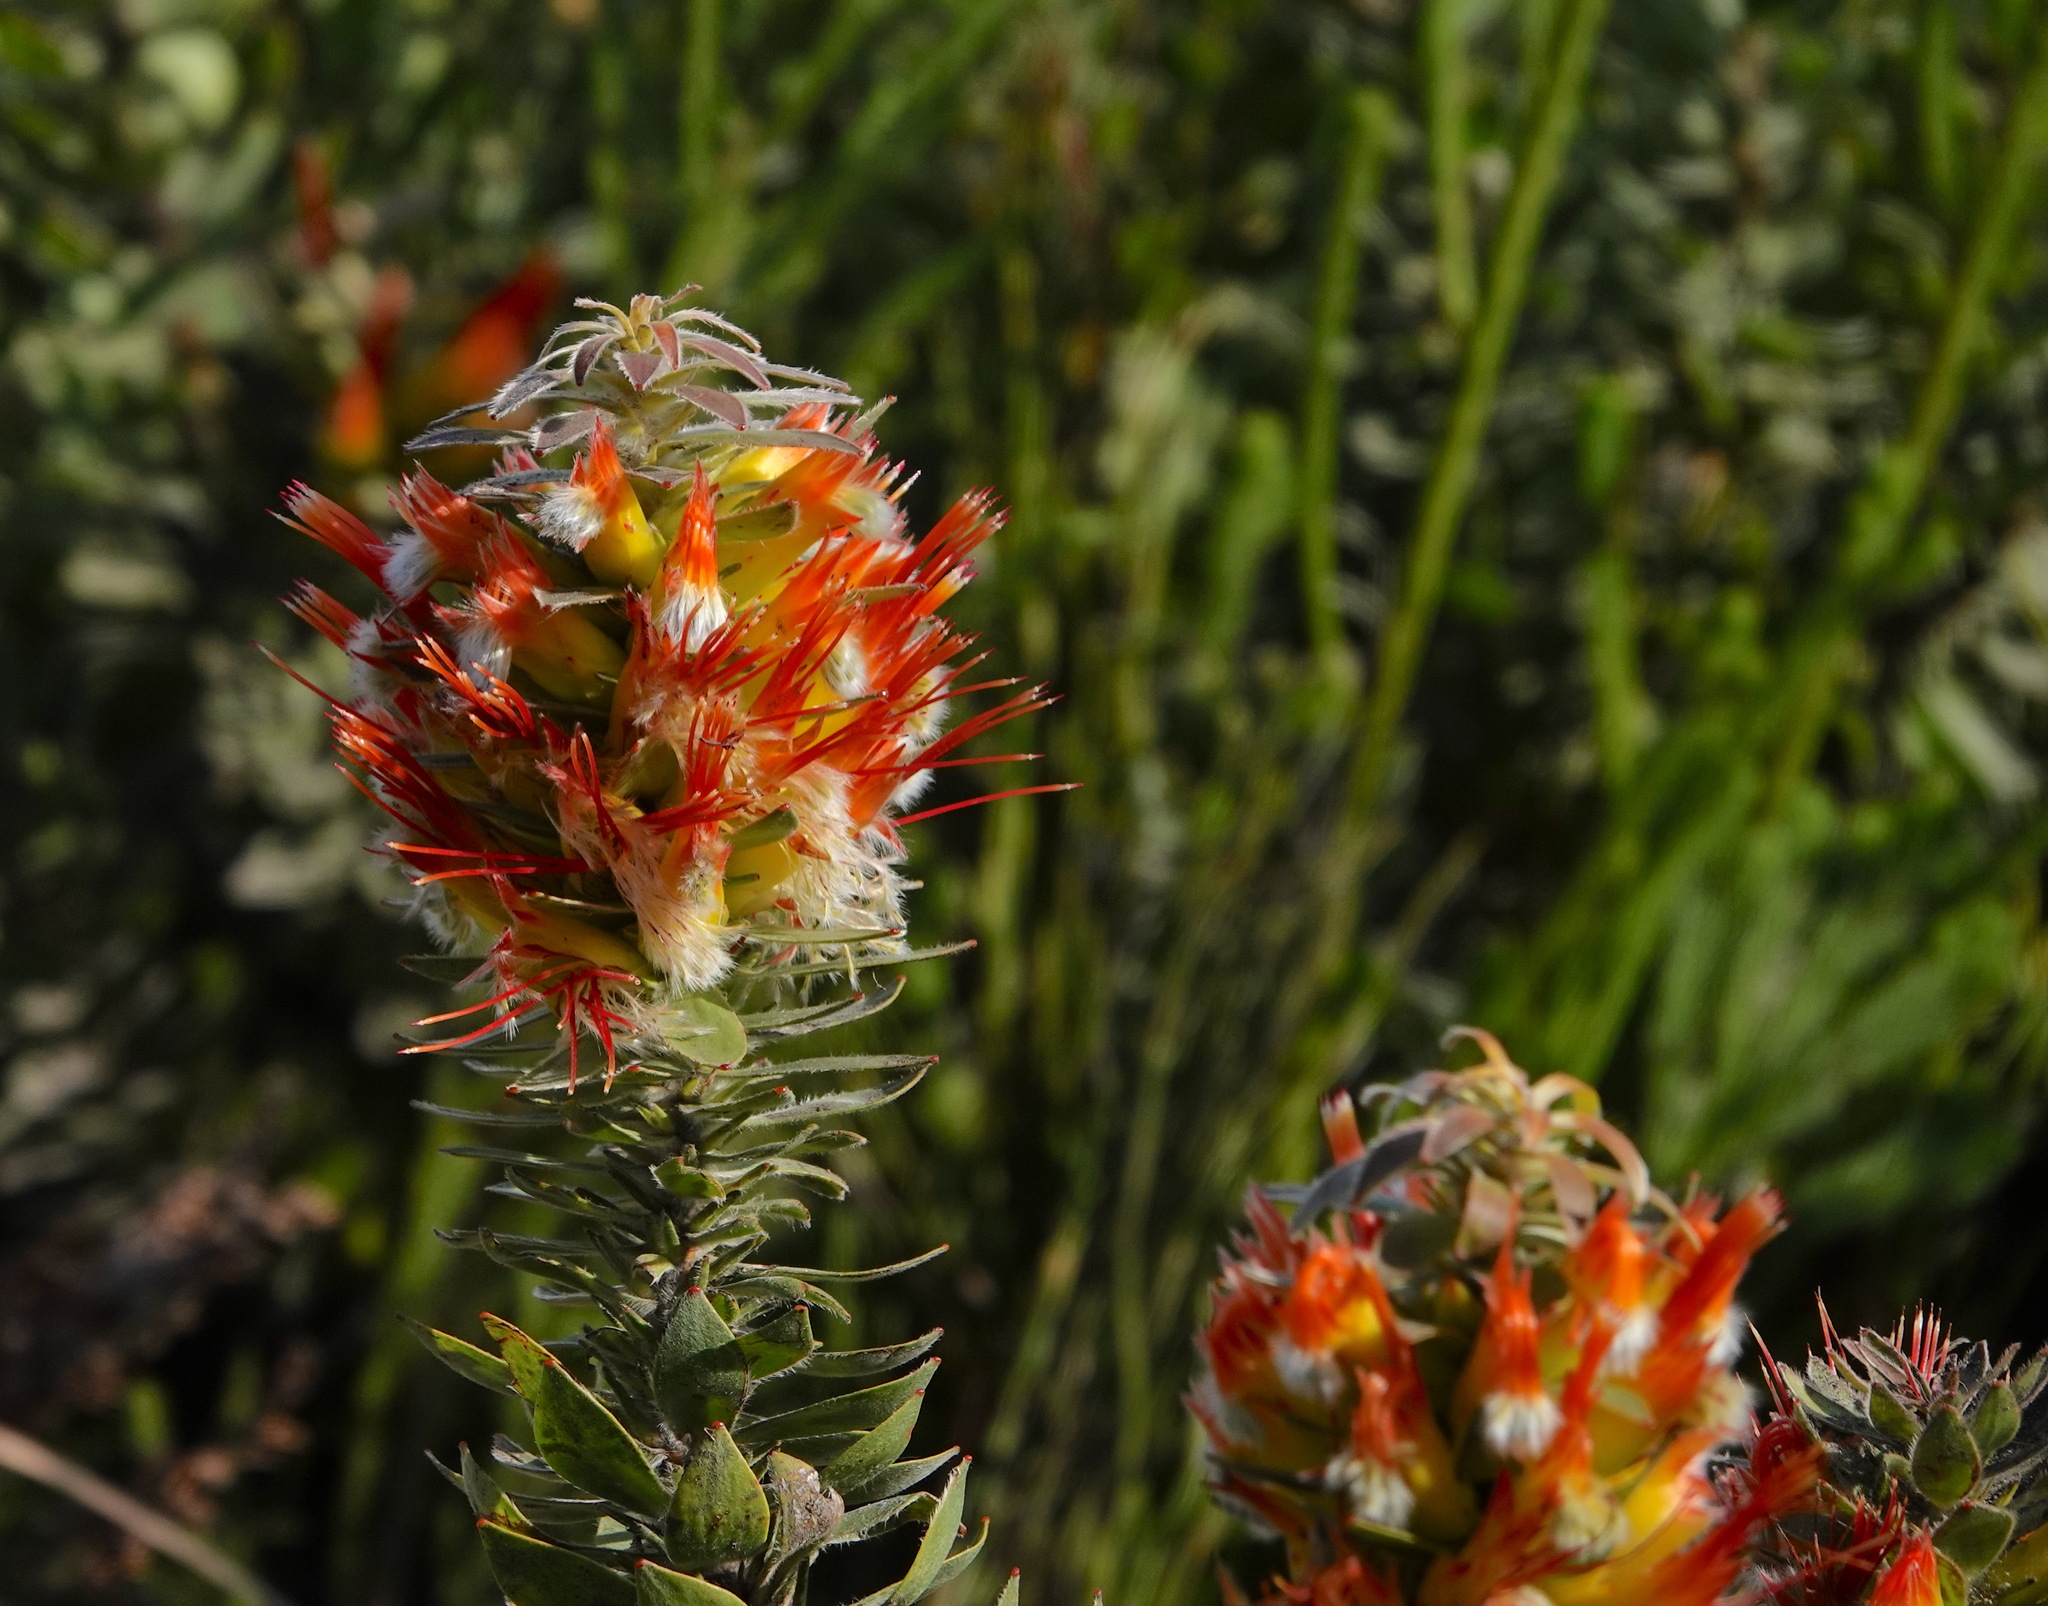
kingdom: Plantae
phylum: Tracheophyta
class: Magnoliopsida
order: Proteales
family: Proteaceae
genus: Mimetes
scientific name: Mimetes hirtus
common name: Marsh pagoda
